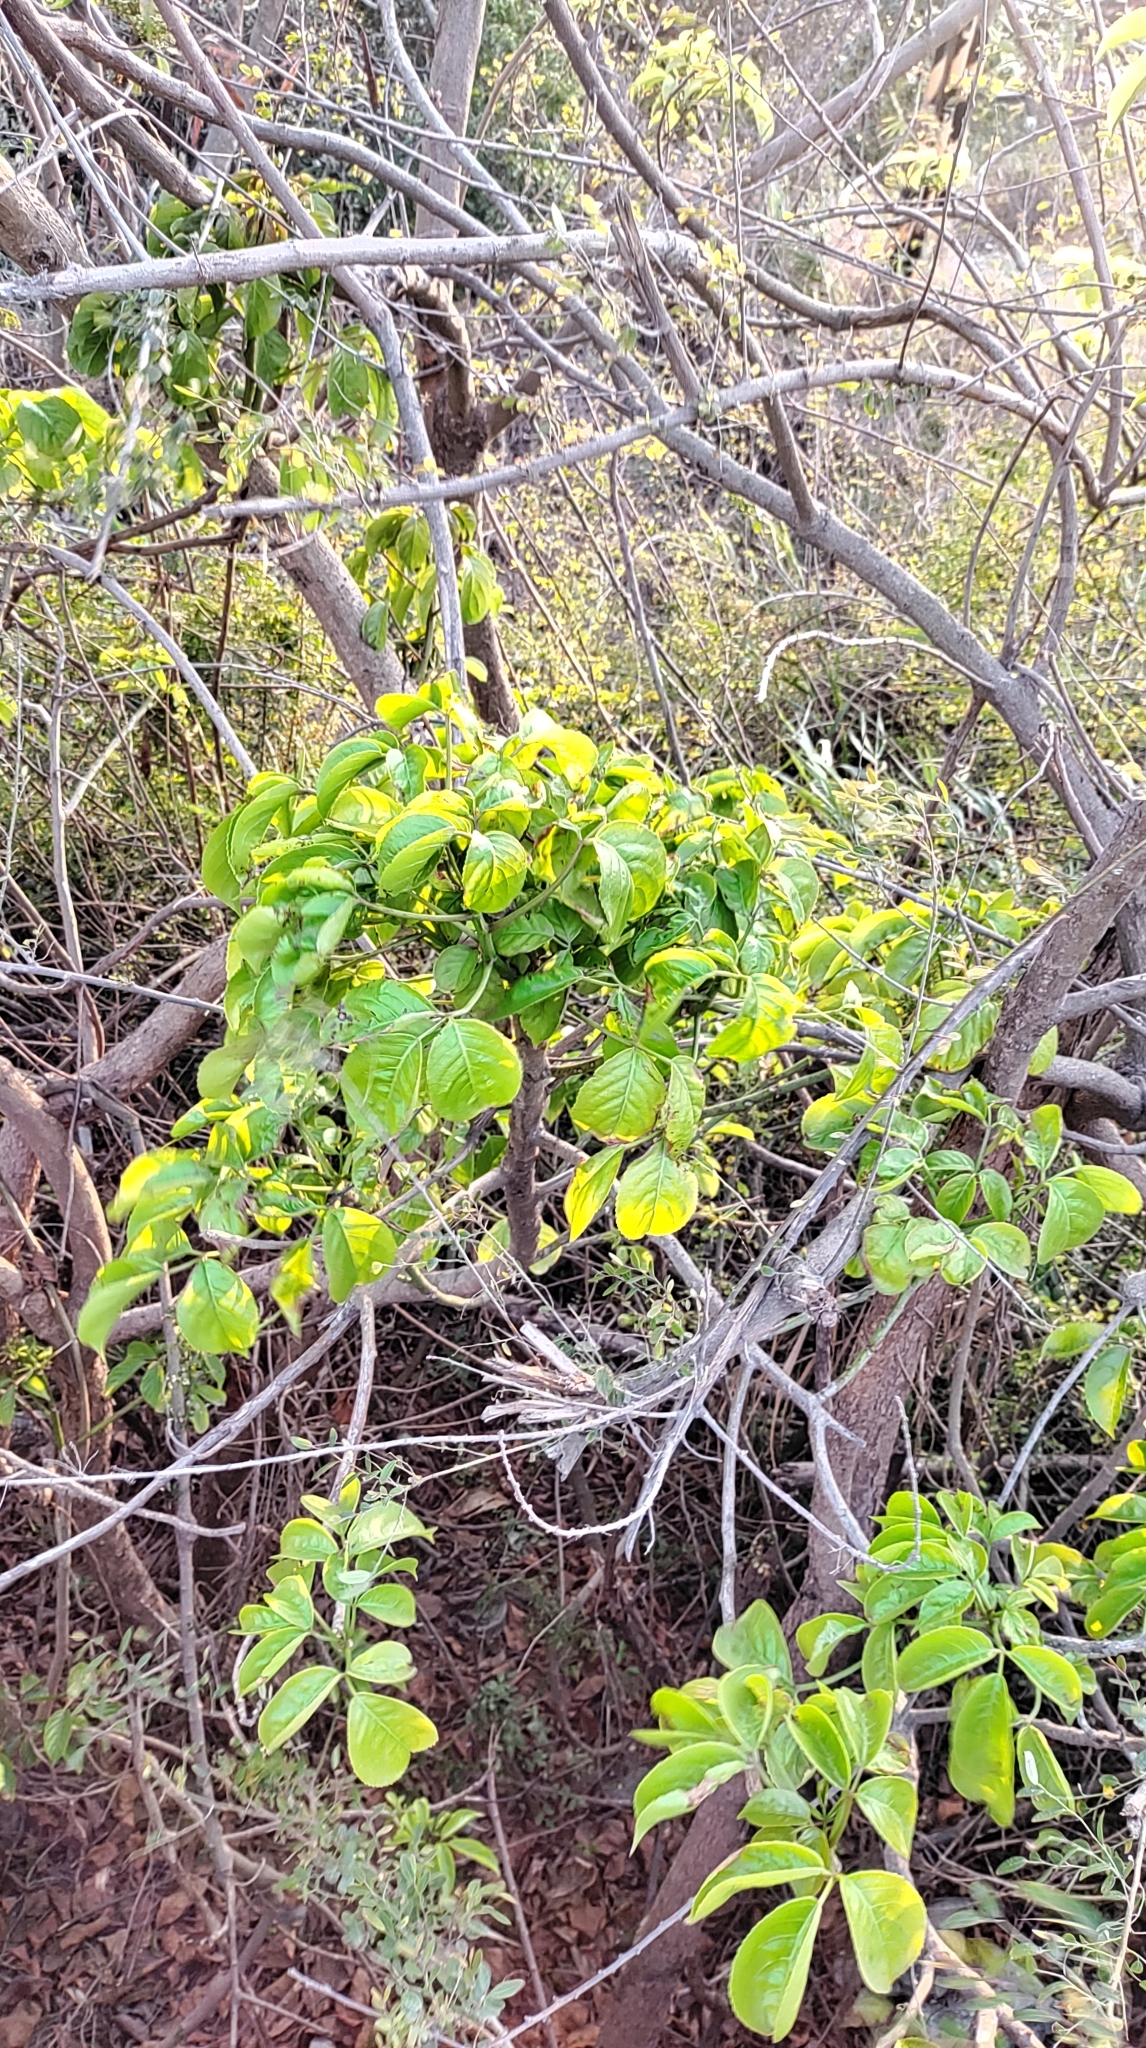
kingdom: Plantae
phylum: Tracheophyta
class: Magnoliopsida
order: Malpighiales
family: Phyllanthaceae
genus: Bischofia
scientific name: Bischofia javanica
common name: Javanese bishopwood
